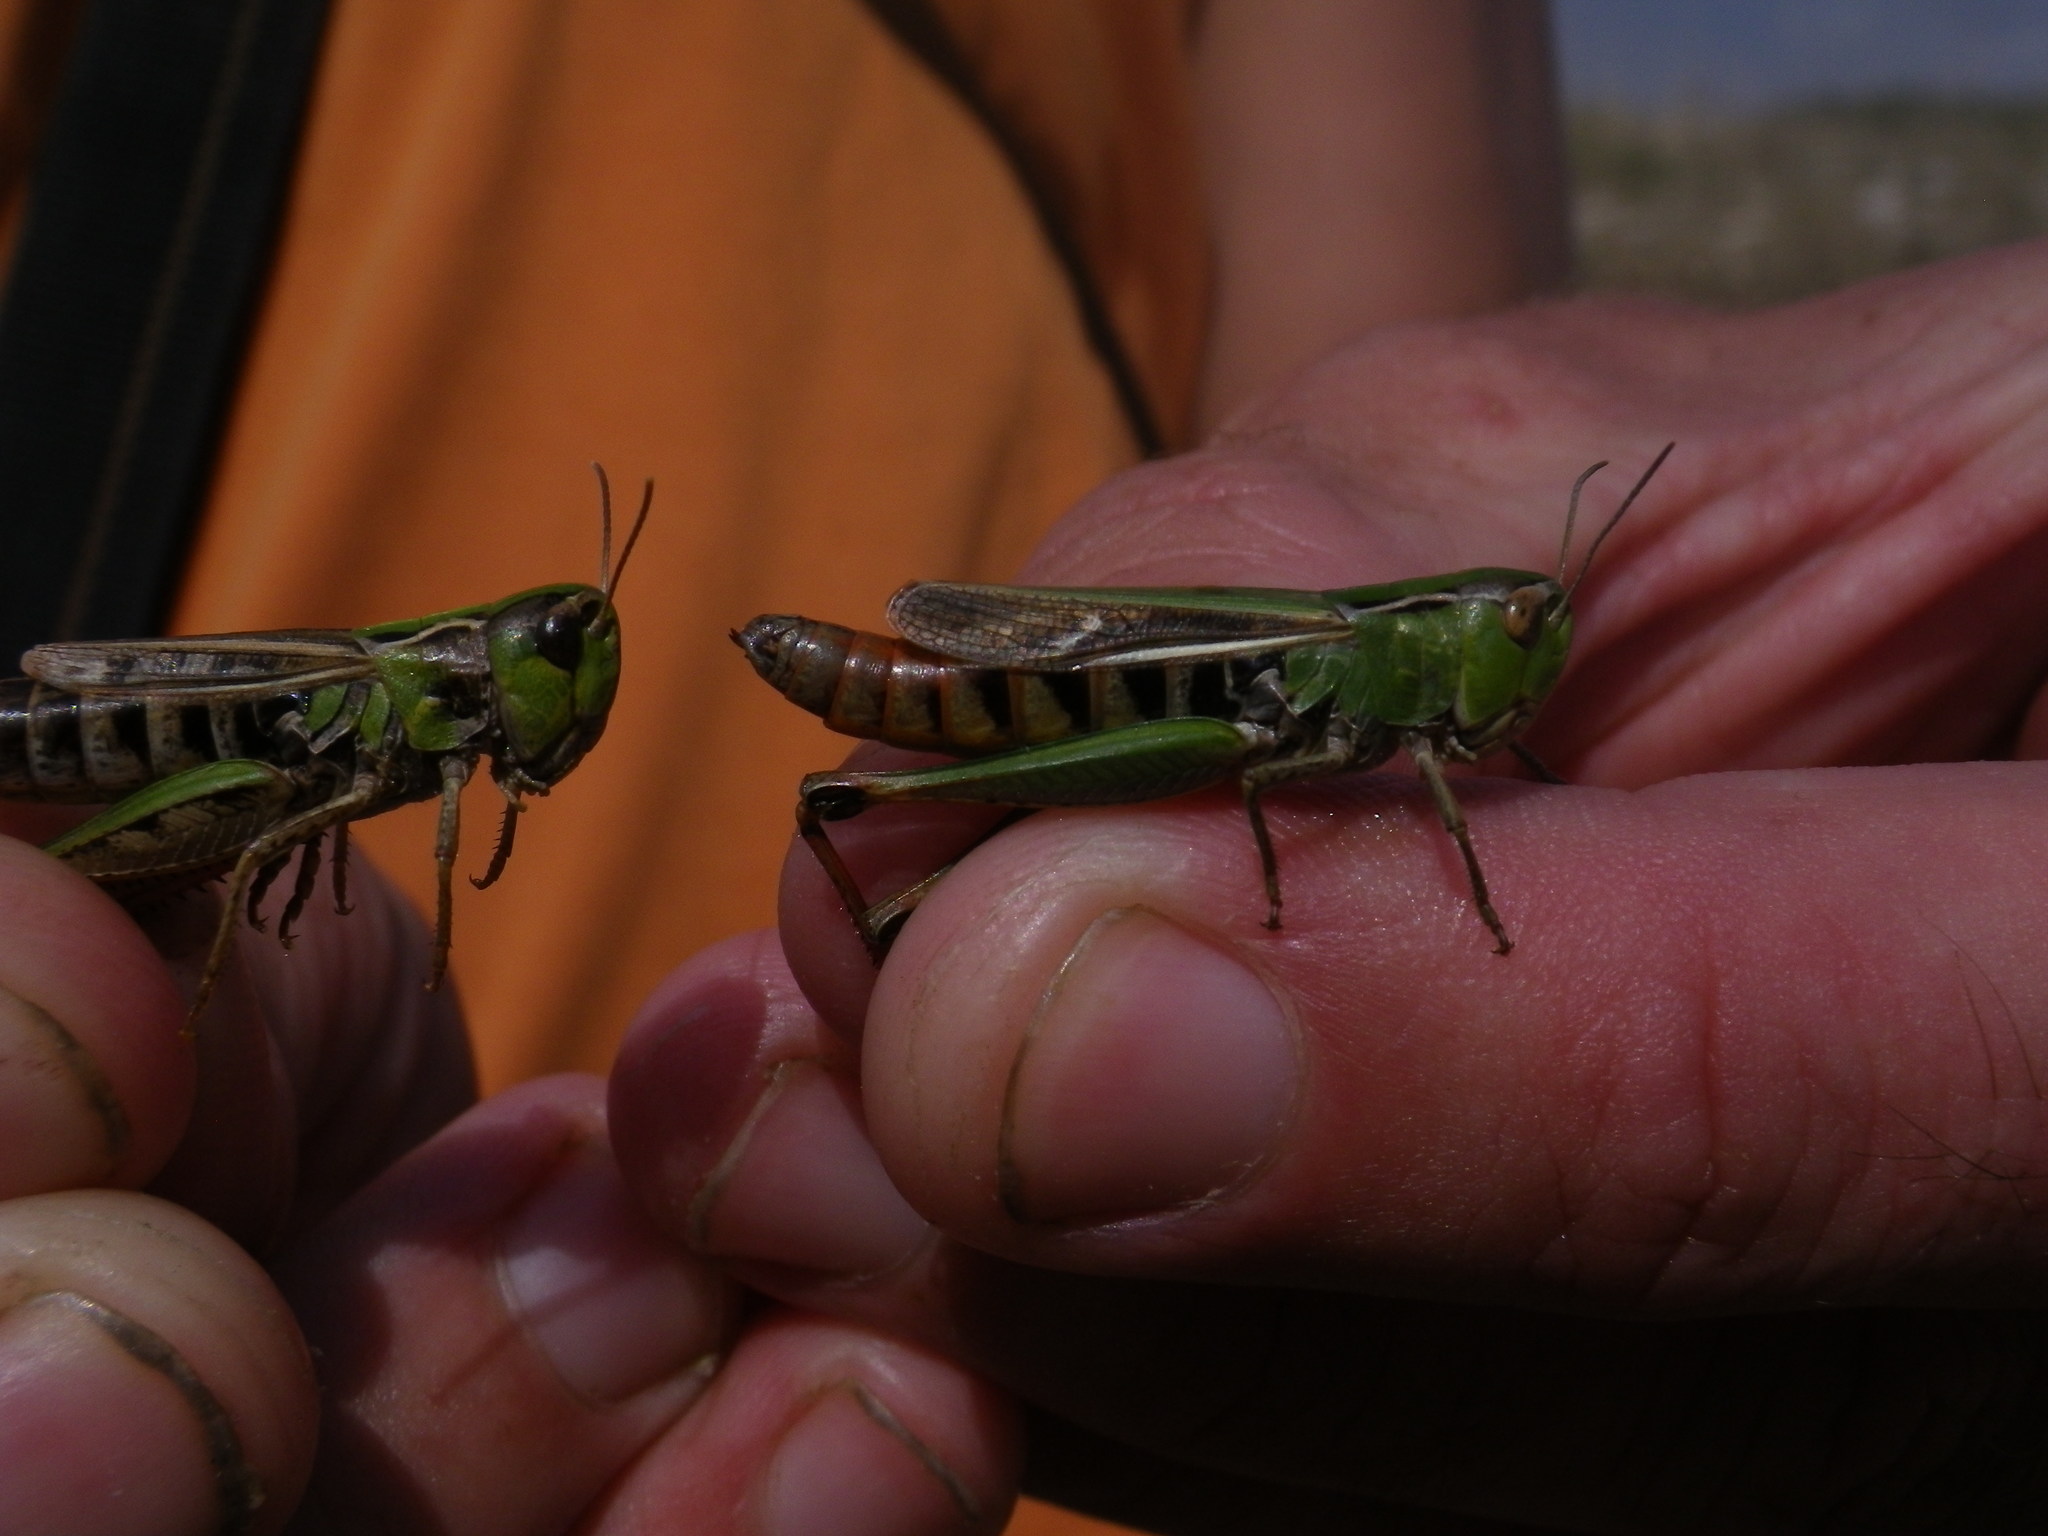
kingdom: Animalia
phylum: Arthropoda
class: Insecta
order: Orthoptera
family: Acrididae
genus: Stenobothrus
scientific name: Stenobothrus lineatus
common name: Stripe-winged grasshopper
